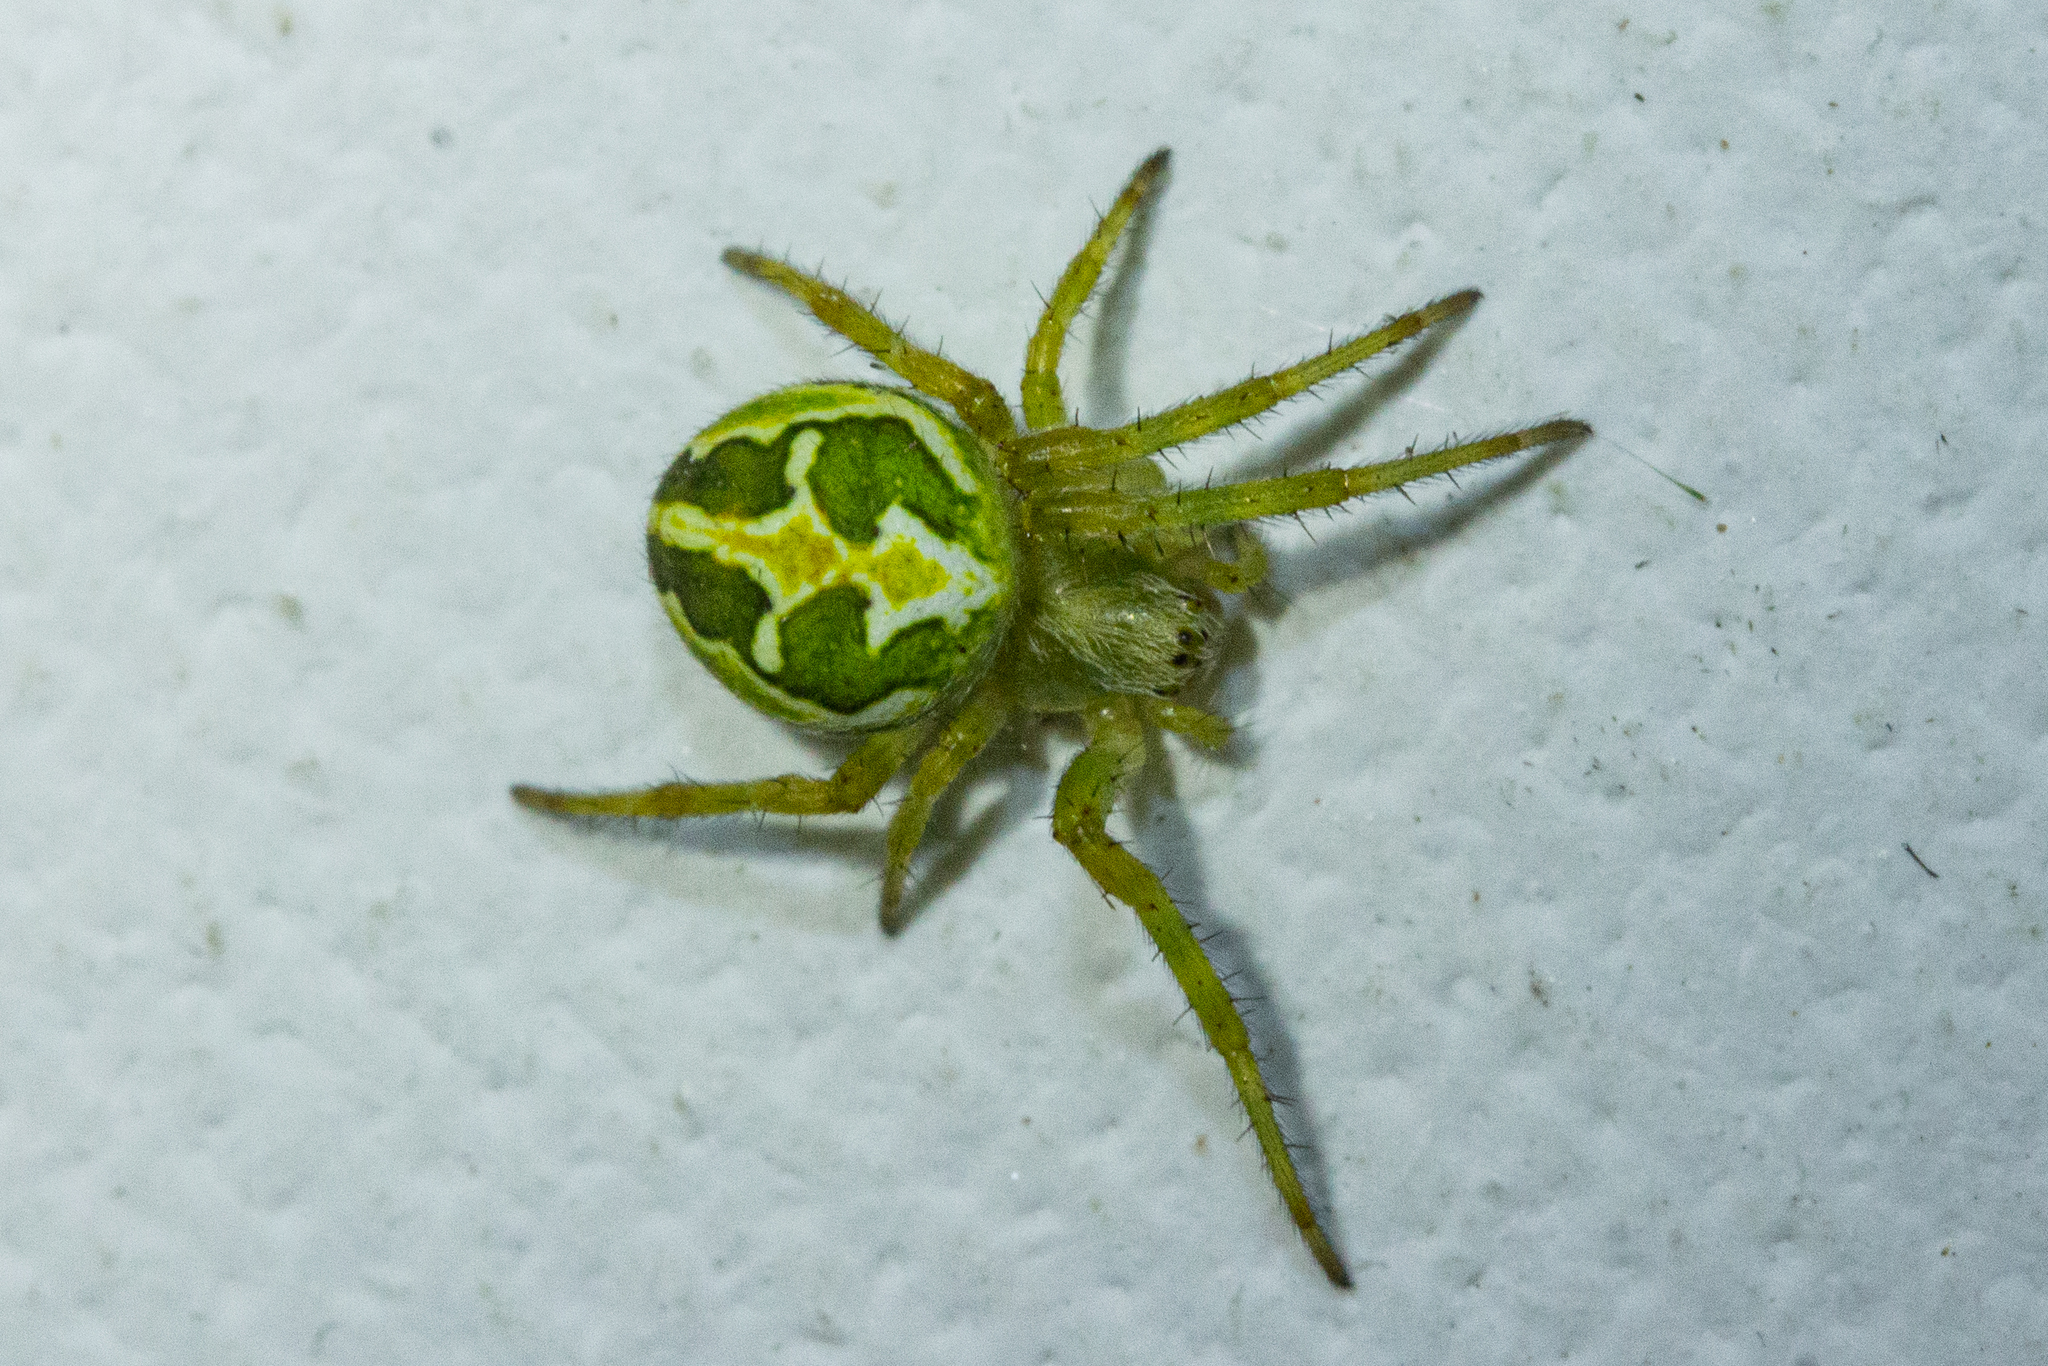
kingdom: Animalia
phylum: Arthropoda
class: Arachnida
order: Araneae
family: Araneidae
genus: Colaranea
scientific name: Colaranea verutum
